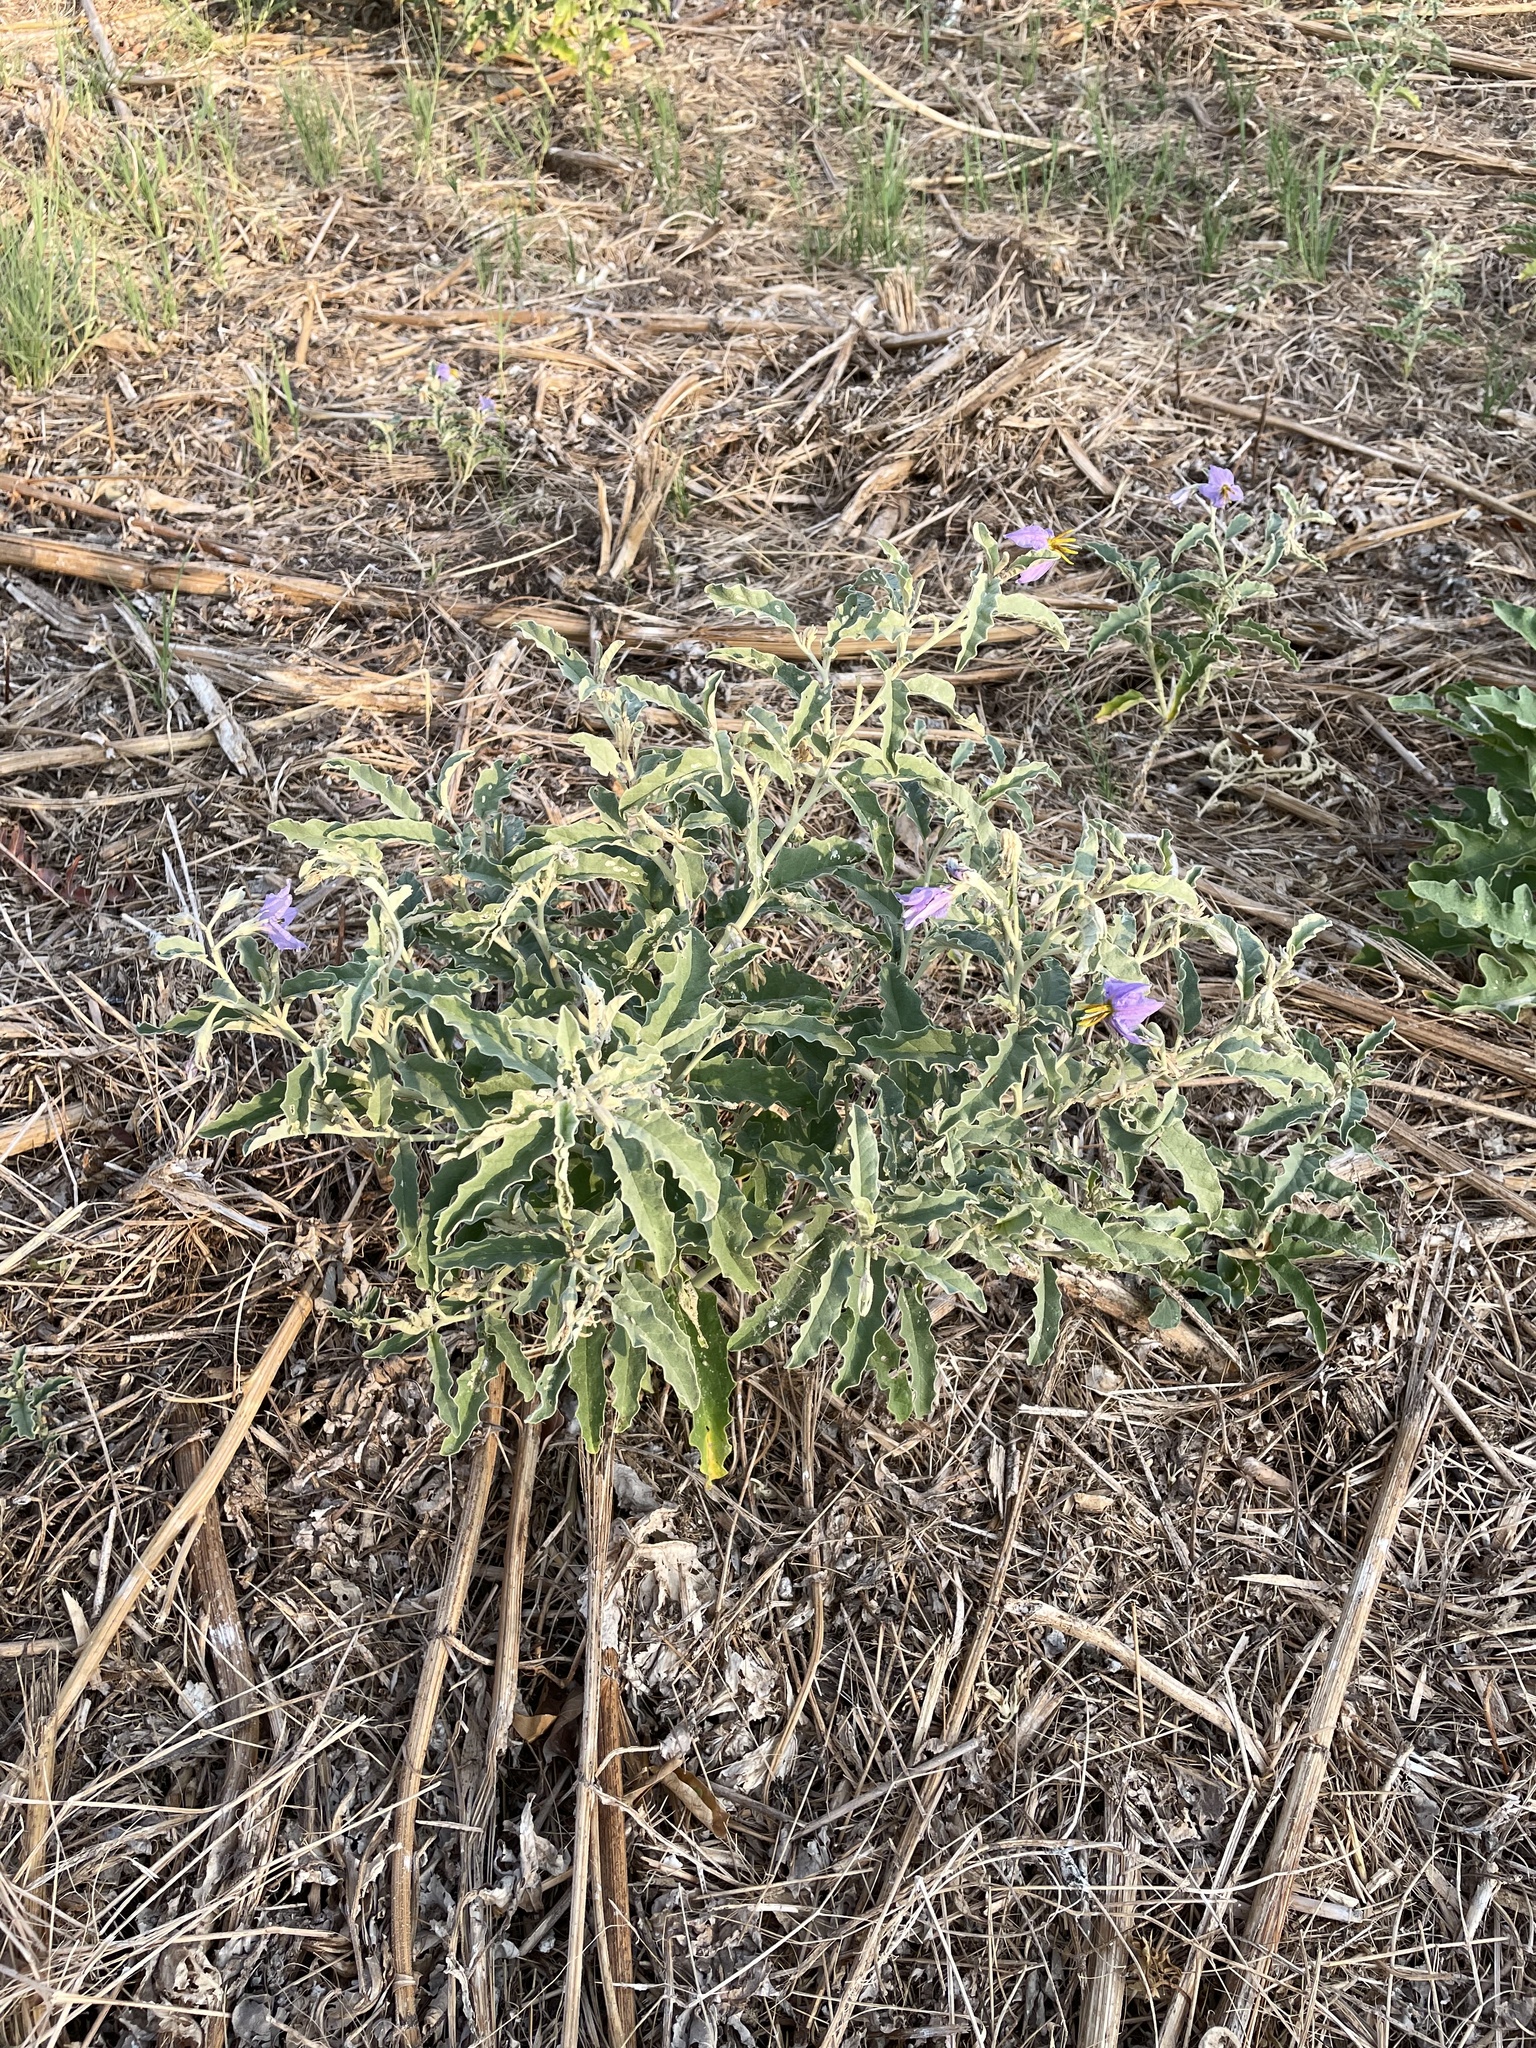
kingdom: Plantae
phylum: Tracheophyta
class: Magnoliopsida
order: Solanales
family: Solanaceae
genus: Solanum
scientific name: Solanum elaeagnifolium
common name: Silverleaf nightshade
